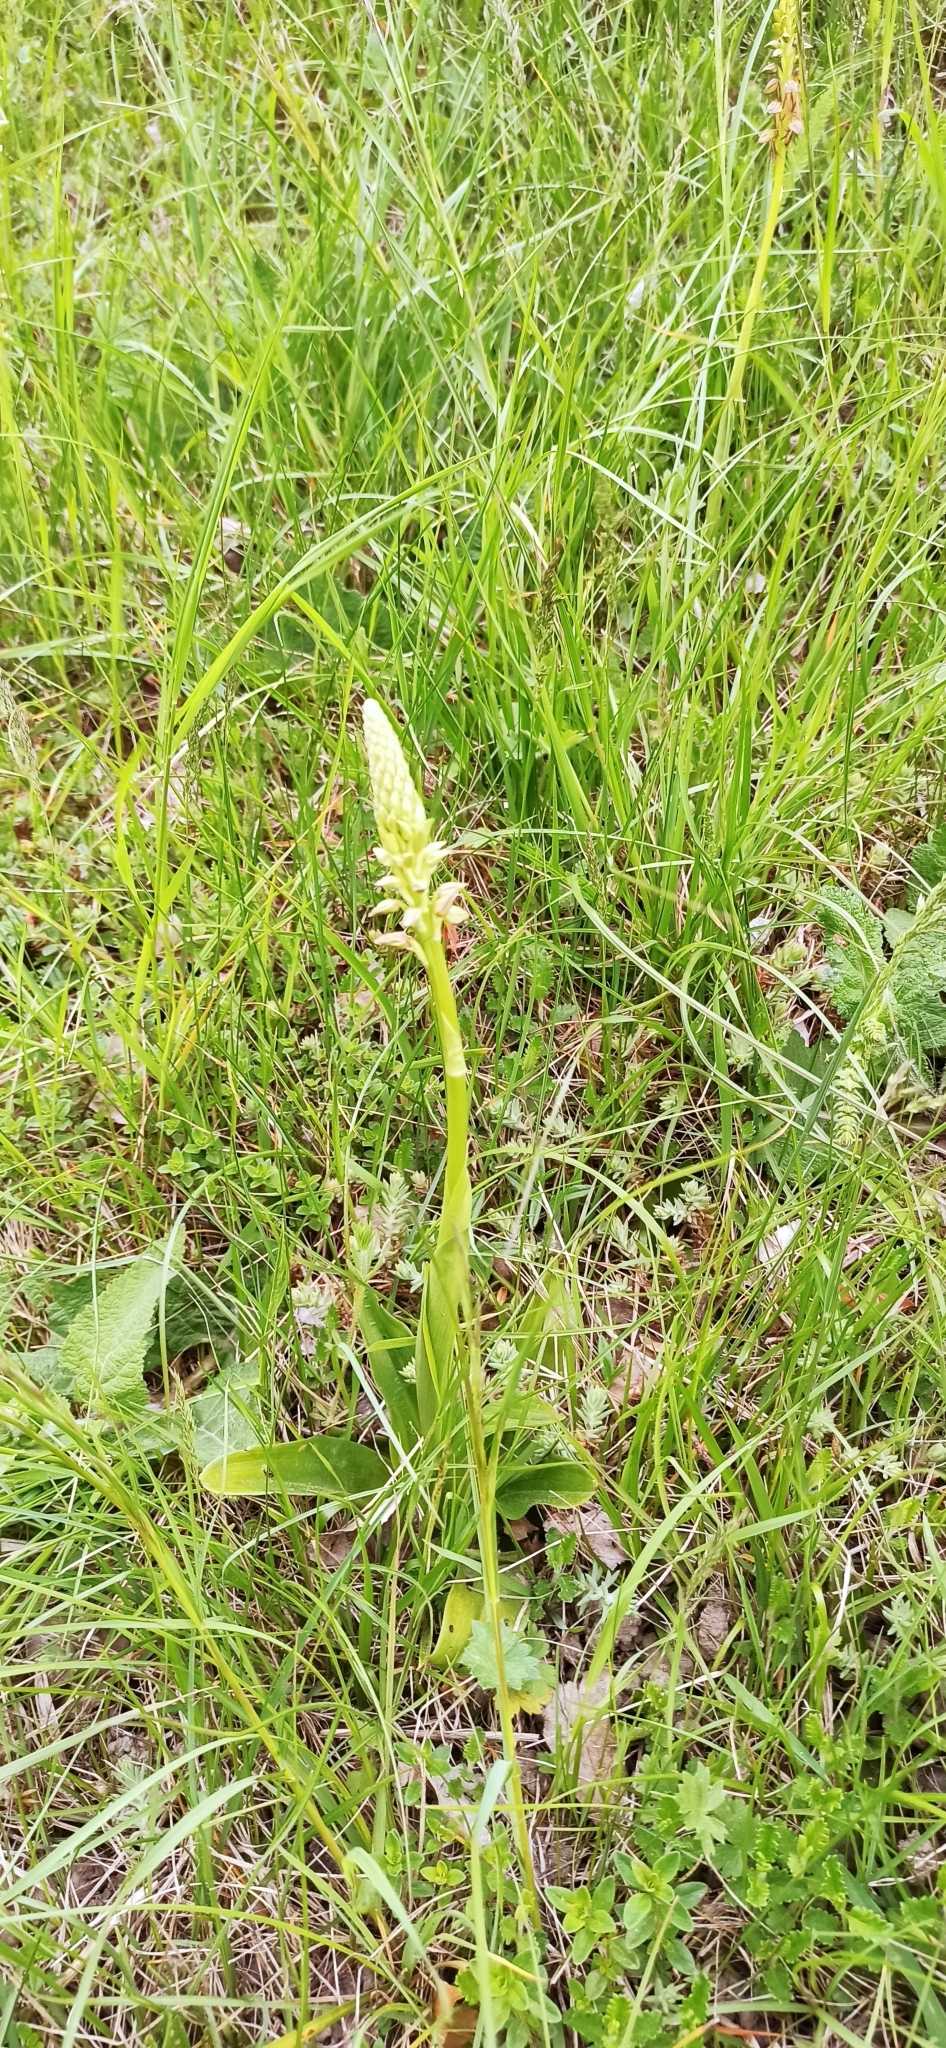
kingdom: Plantae
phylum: Tracheophyta
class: Liliopsida
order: Asparagales
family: Orchidaceae
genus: Orchis
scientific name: Orchis anthropophora
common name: Man orchid
